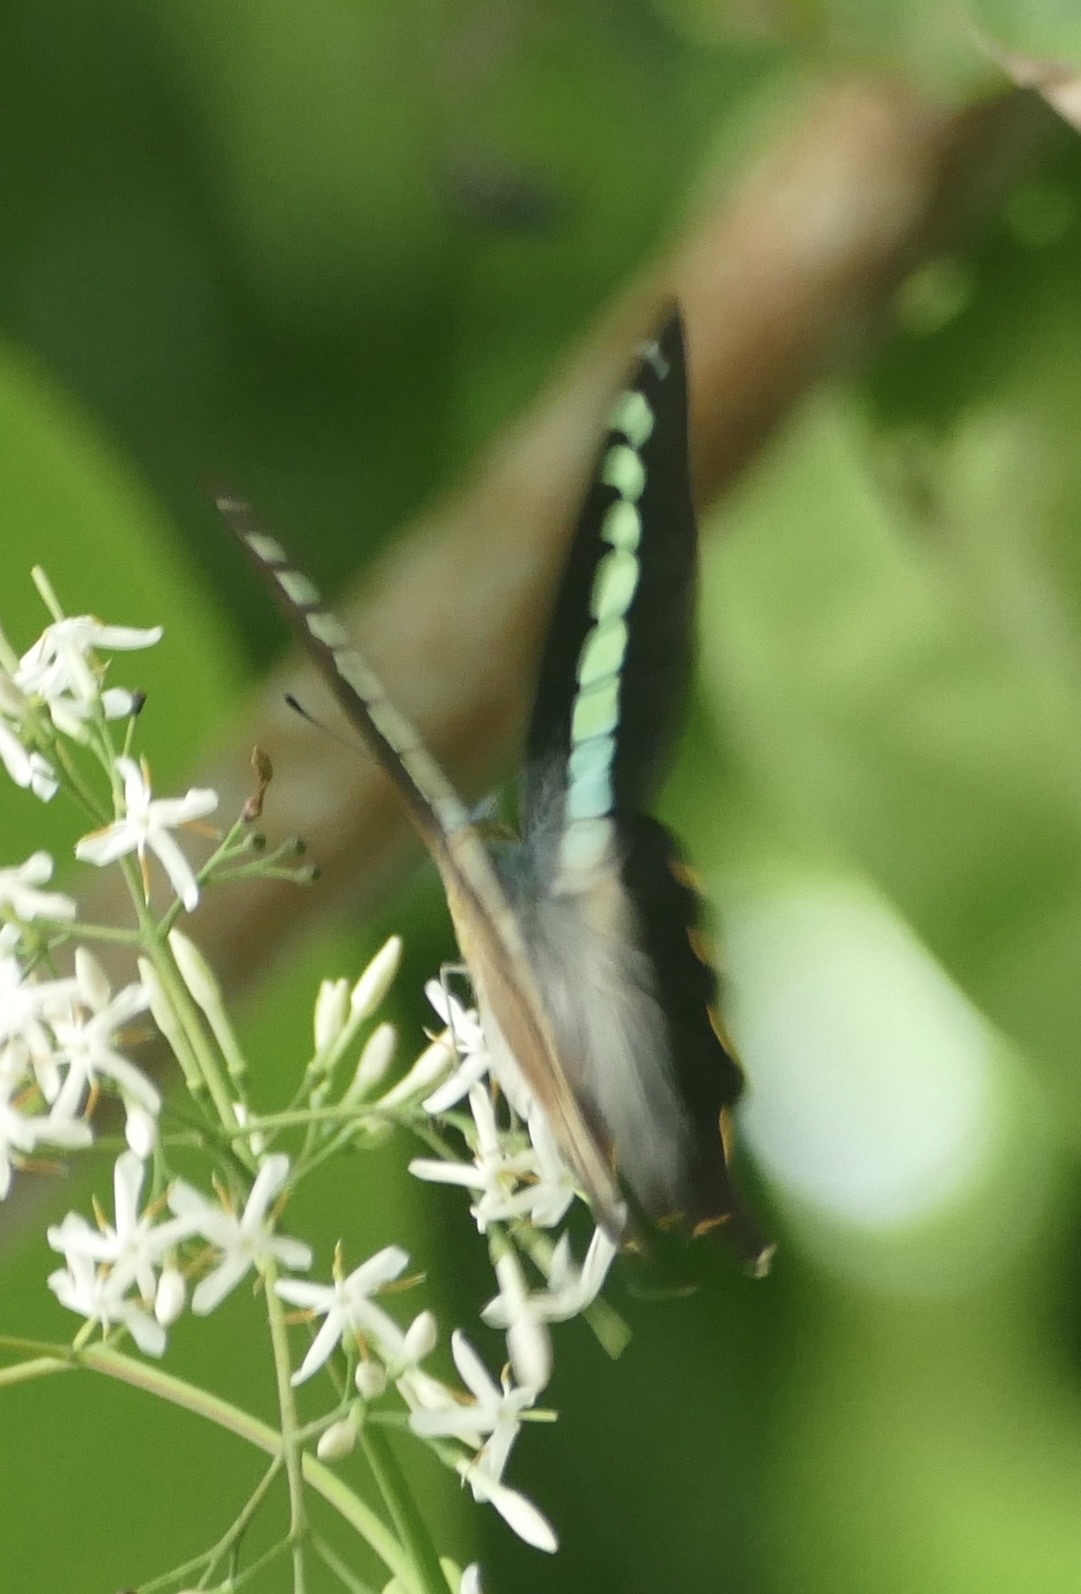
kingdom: Animalia
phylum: Arthropoda
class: Insecta
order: Lepidoptera
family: Papilionidae
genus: Graphium
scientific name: Graphium codrus
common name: Olive triangle
